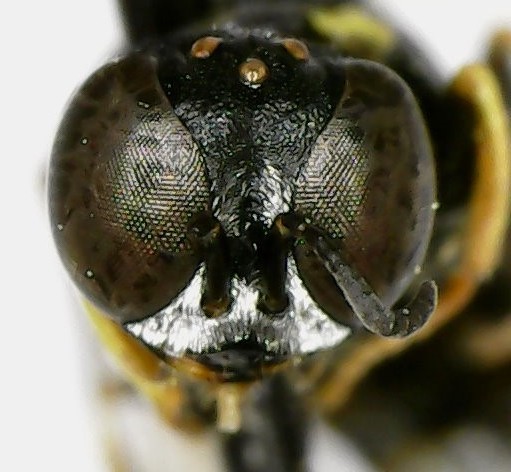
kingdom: Animalia
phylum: Arthropoda
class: Insecta
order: Hymenoptera
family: Crabronidae
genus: Anacrabro
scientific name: Anacrabro ocellatus
